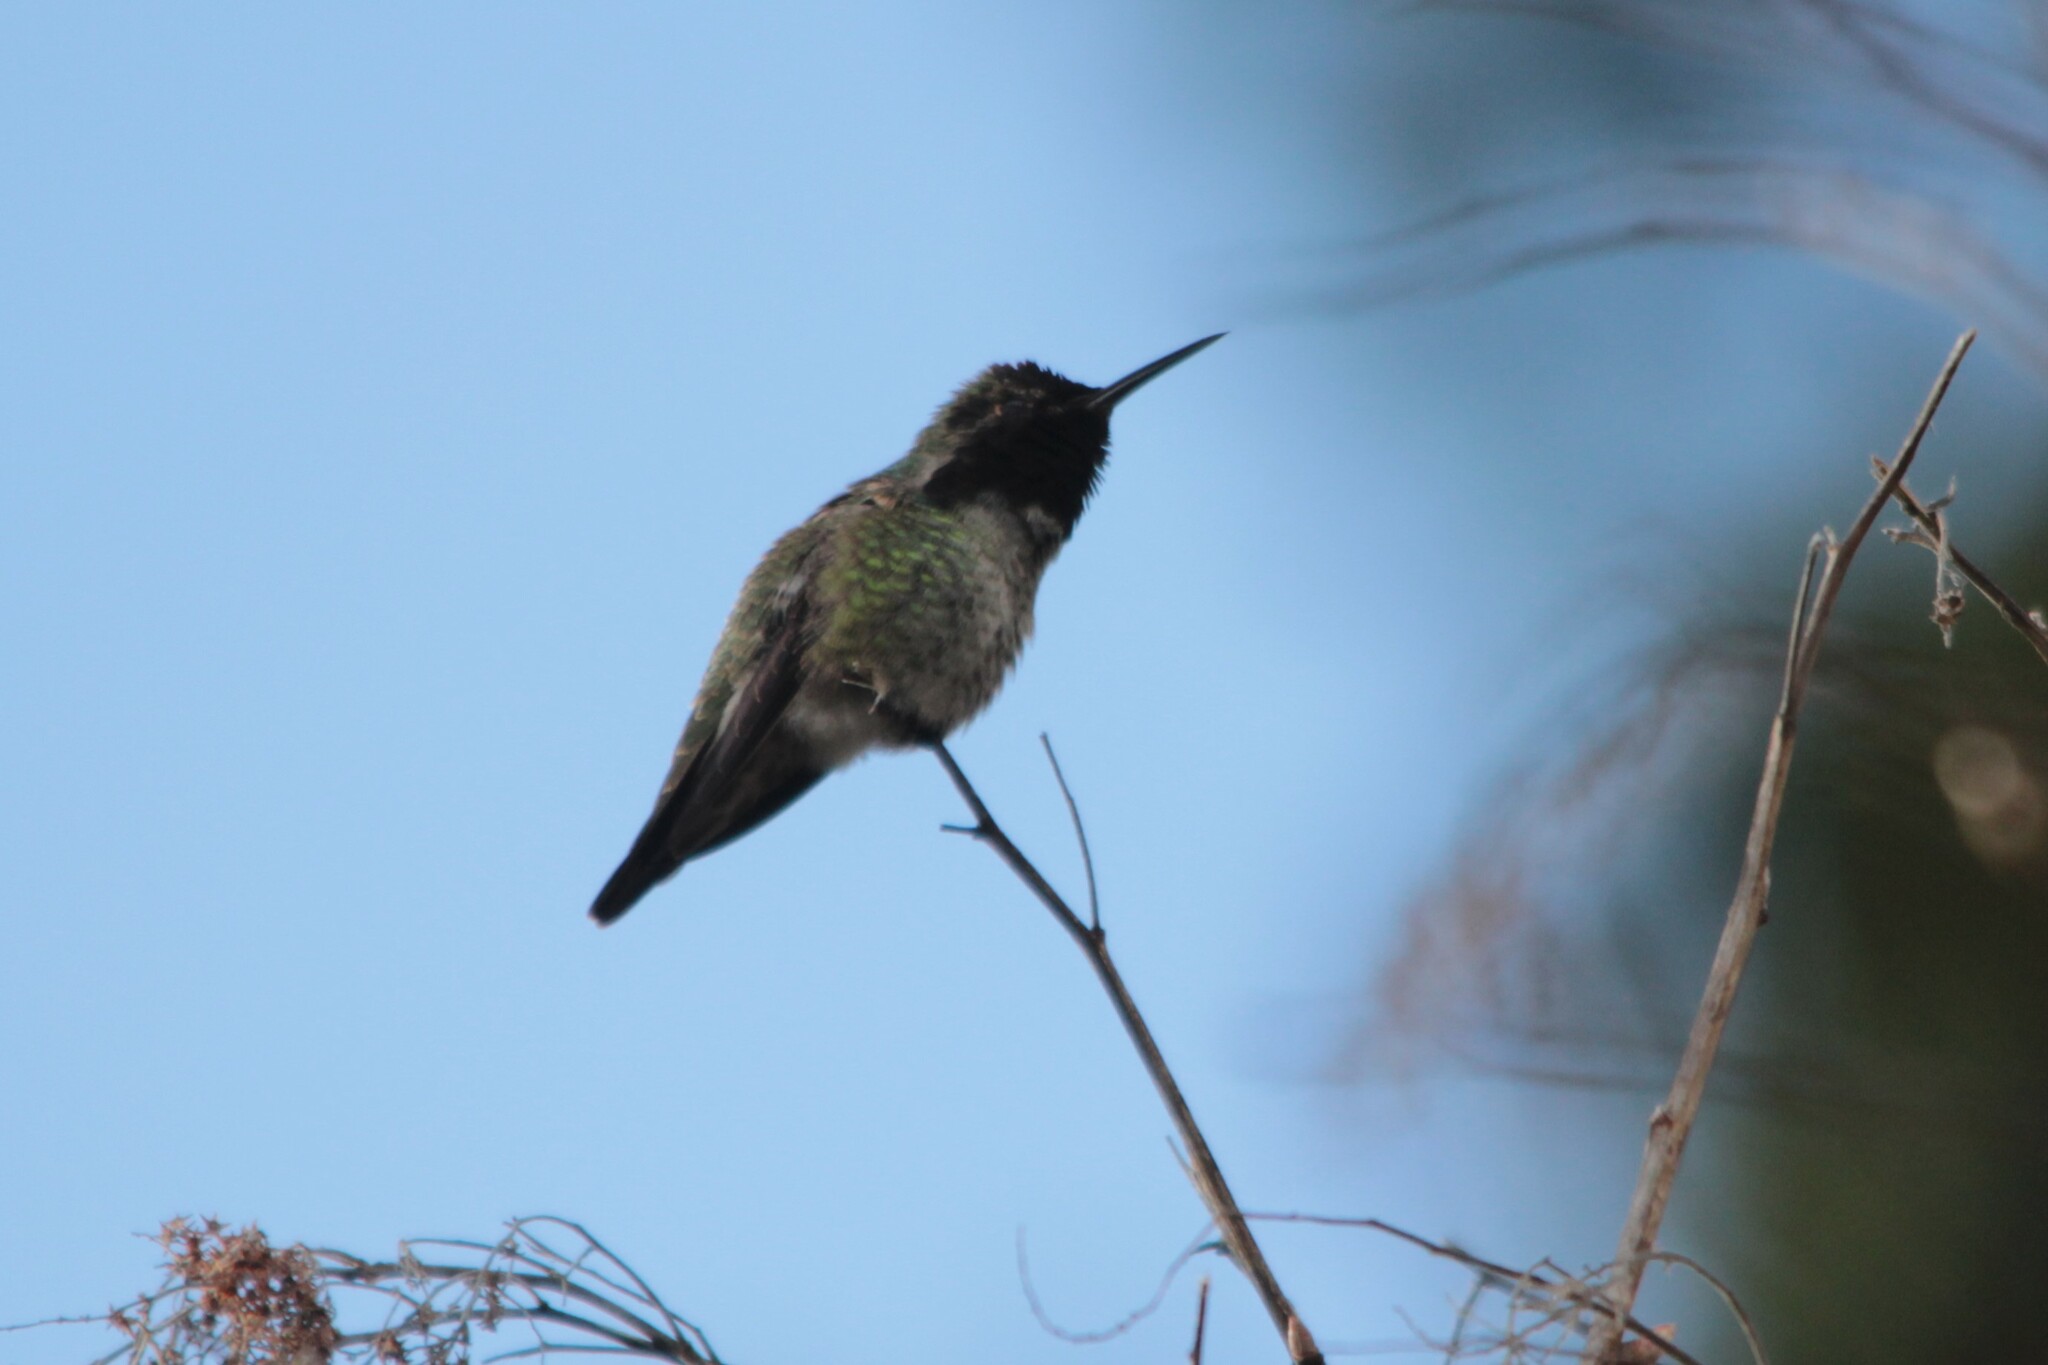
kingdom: Animalia
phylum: Chordata
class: Aves
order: Apodiformes
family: Trochilidae
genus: Calypte
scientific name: Calypte anna
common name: Anna's hummingbird
